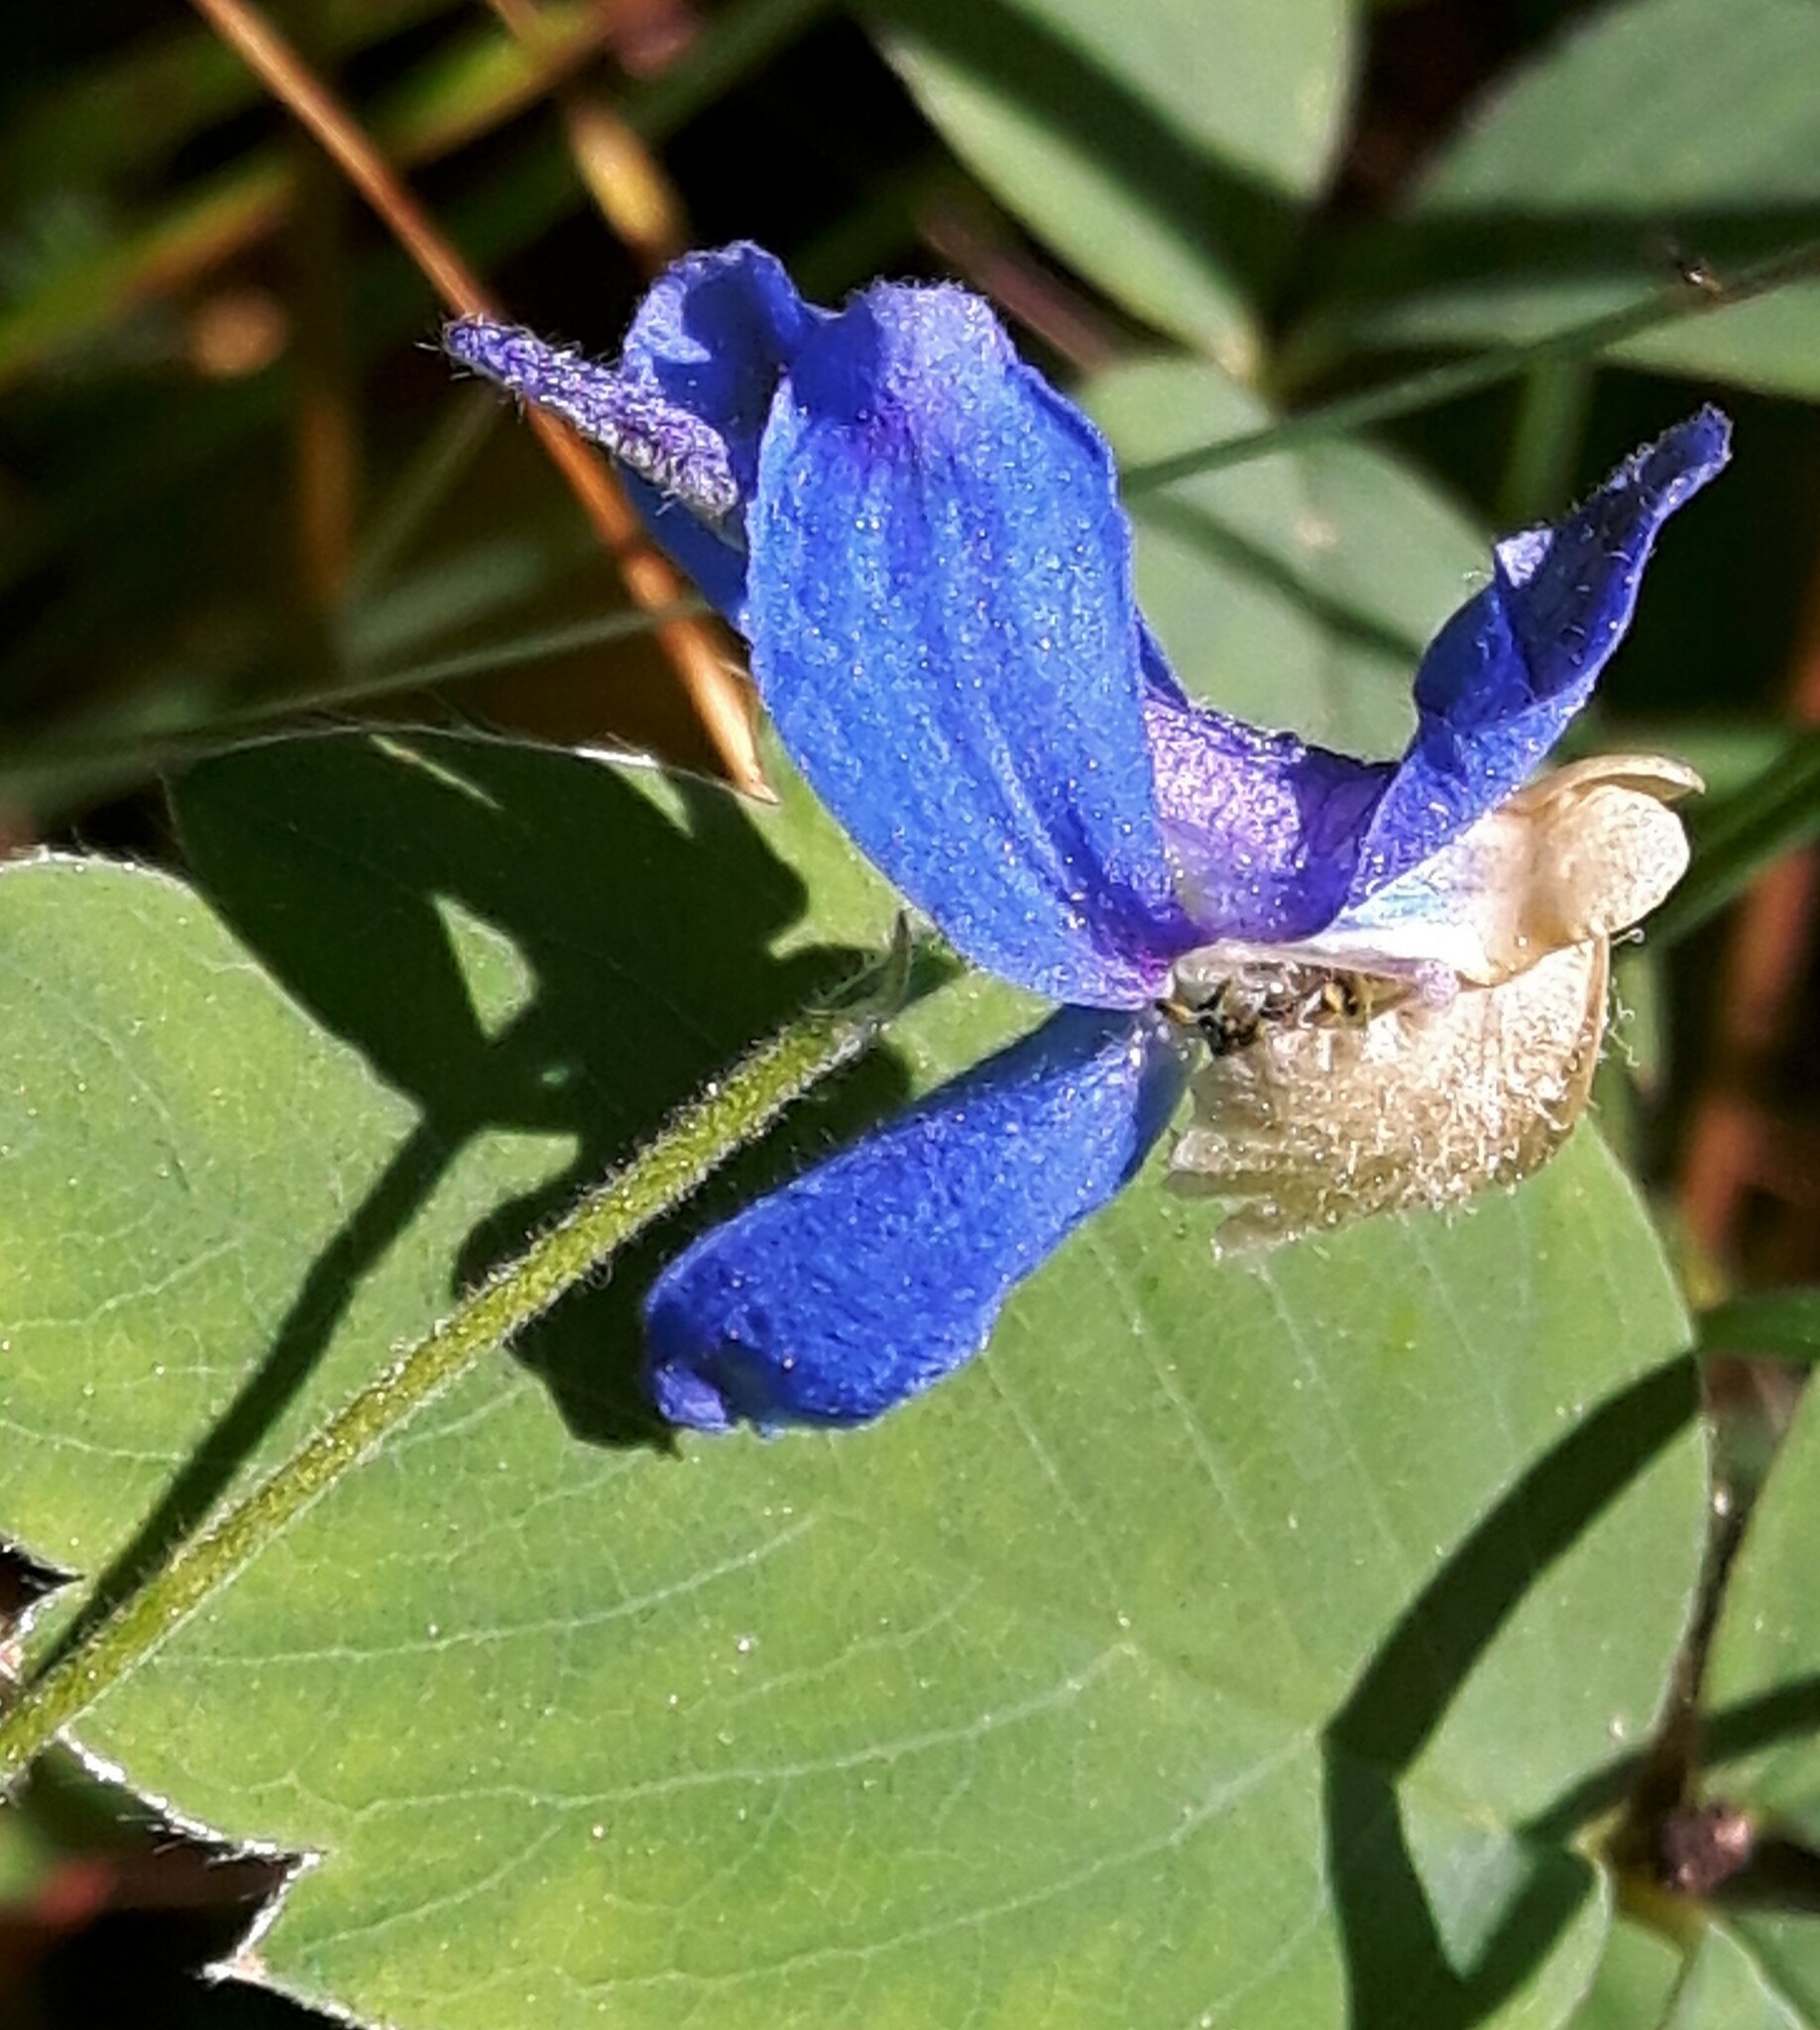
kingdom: Plantae
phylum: Tracheophyta
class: Magnoliopsida
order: Ranunculales
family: Ranunculaceae
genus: Delphinium
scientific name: Delphinium sutherlandii
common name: Sutherland's larkspur
